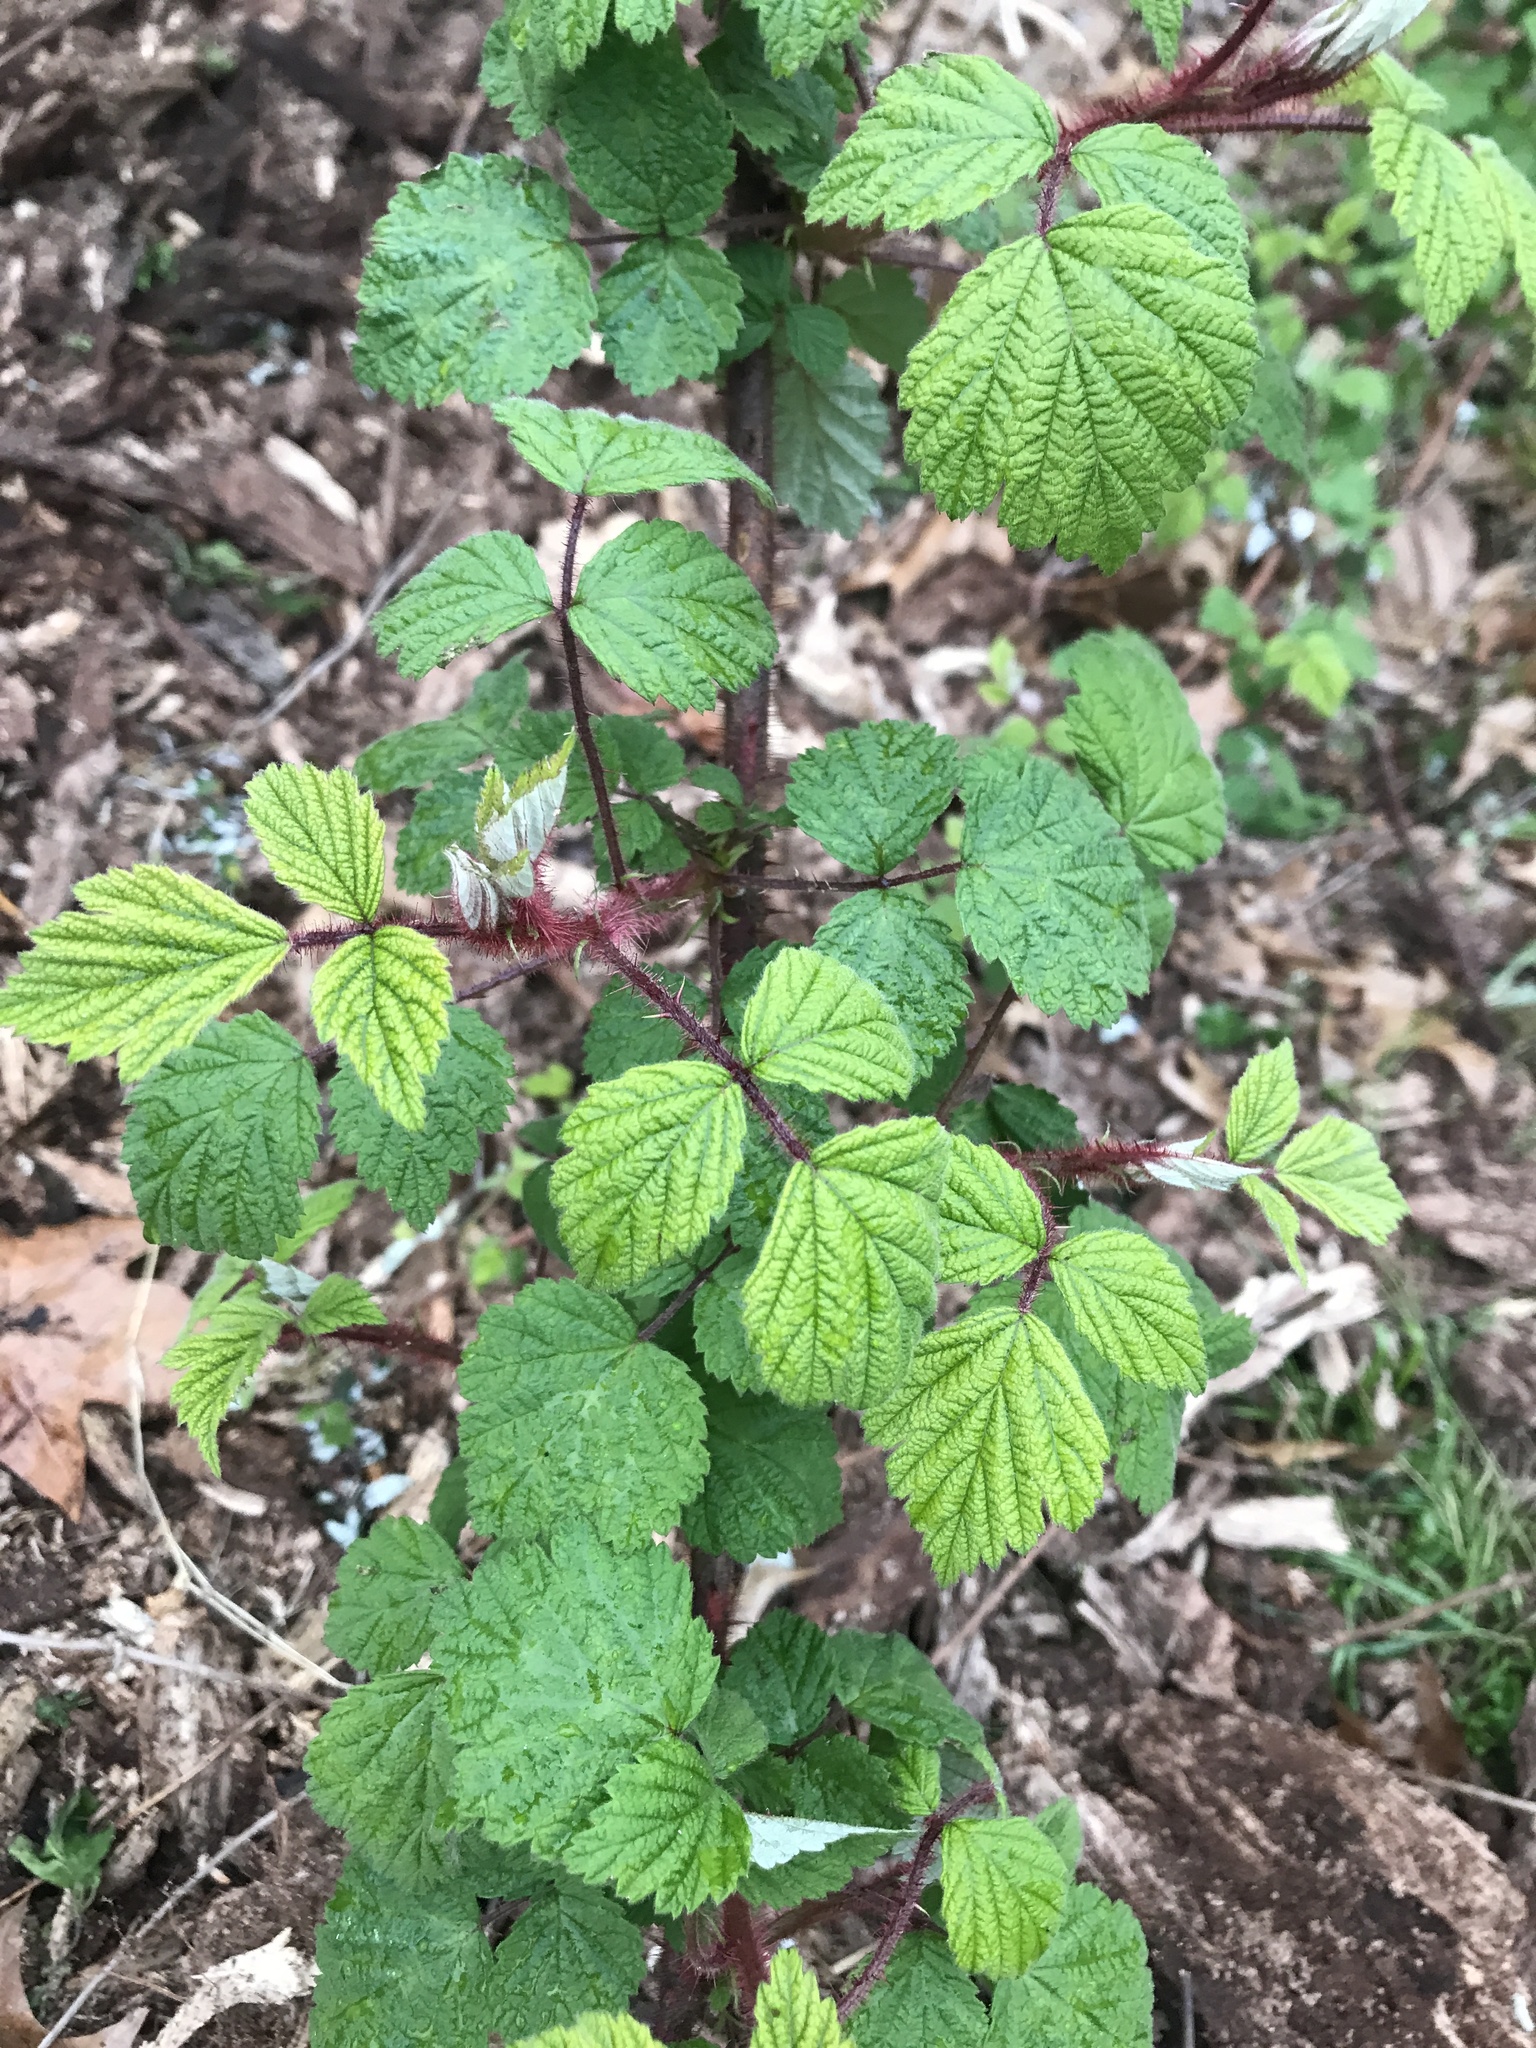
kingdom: Plantae
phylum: Tracheophyta
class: Magnoliopsida
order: Rosales
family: Rosaceae
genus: Rubus
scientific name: Rubus phoenicolasius
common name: Japanese wineberry
